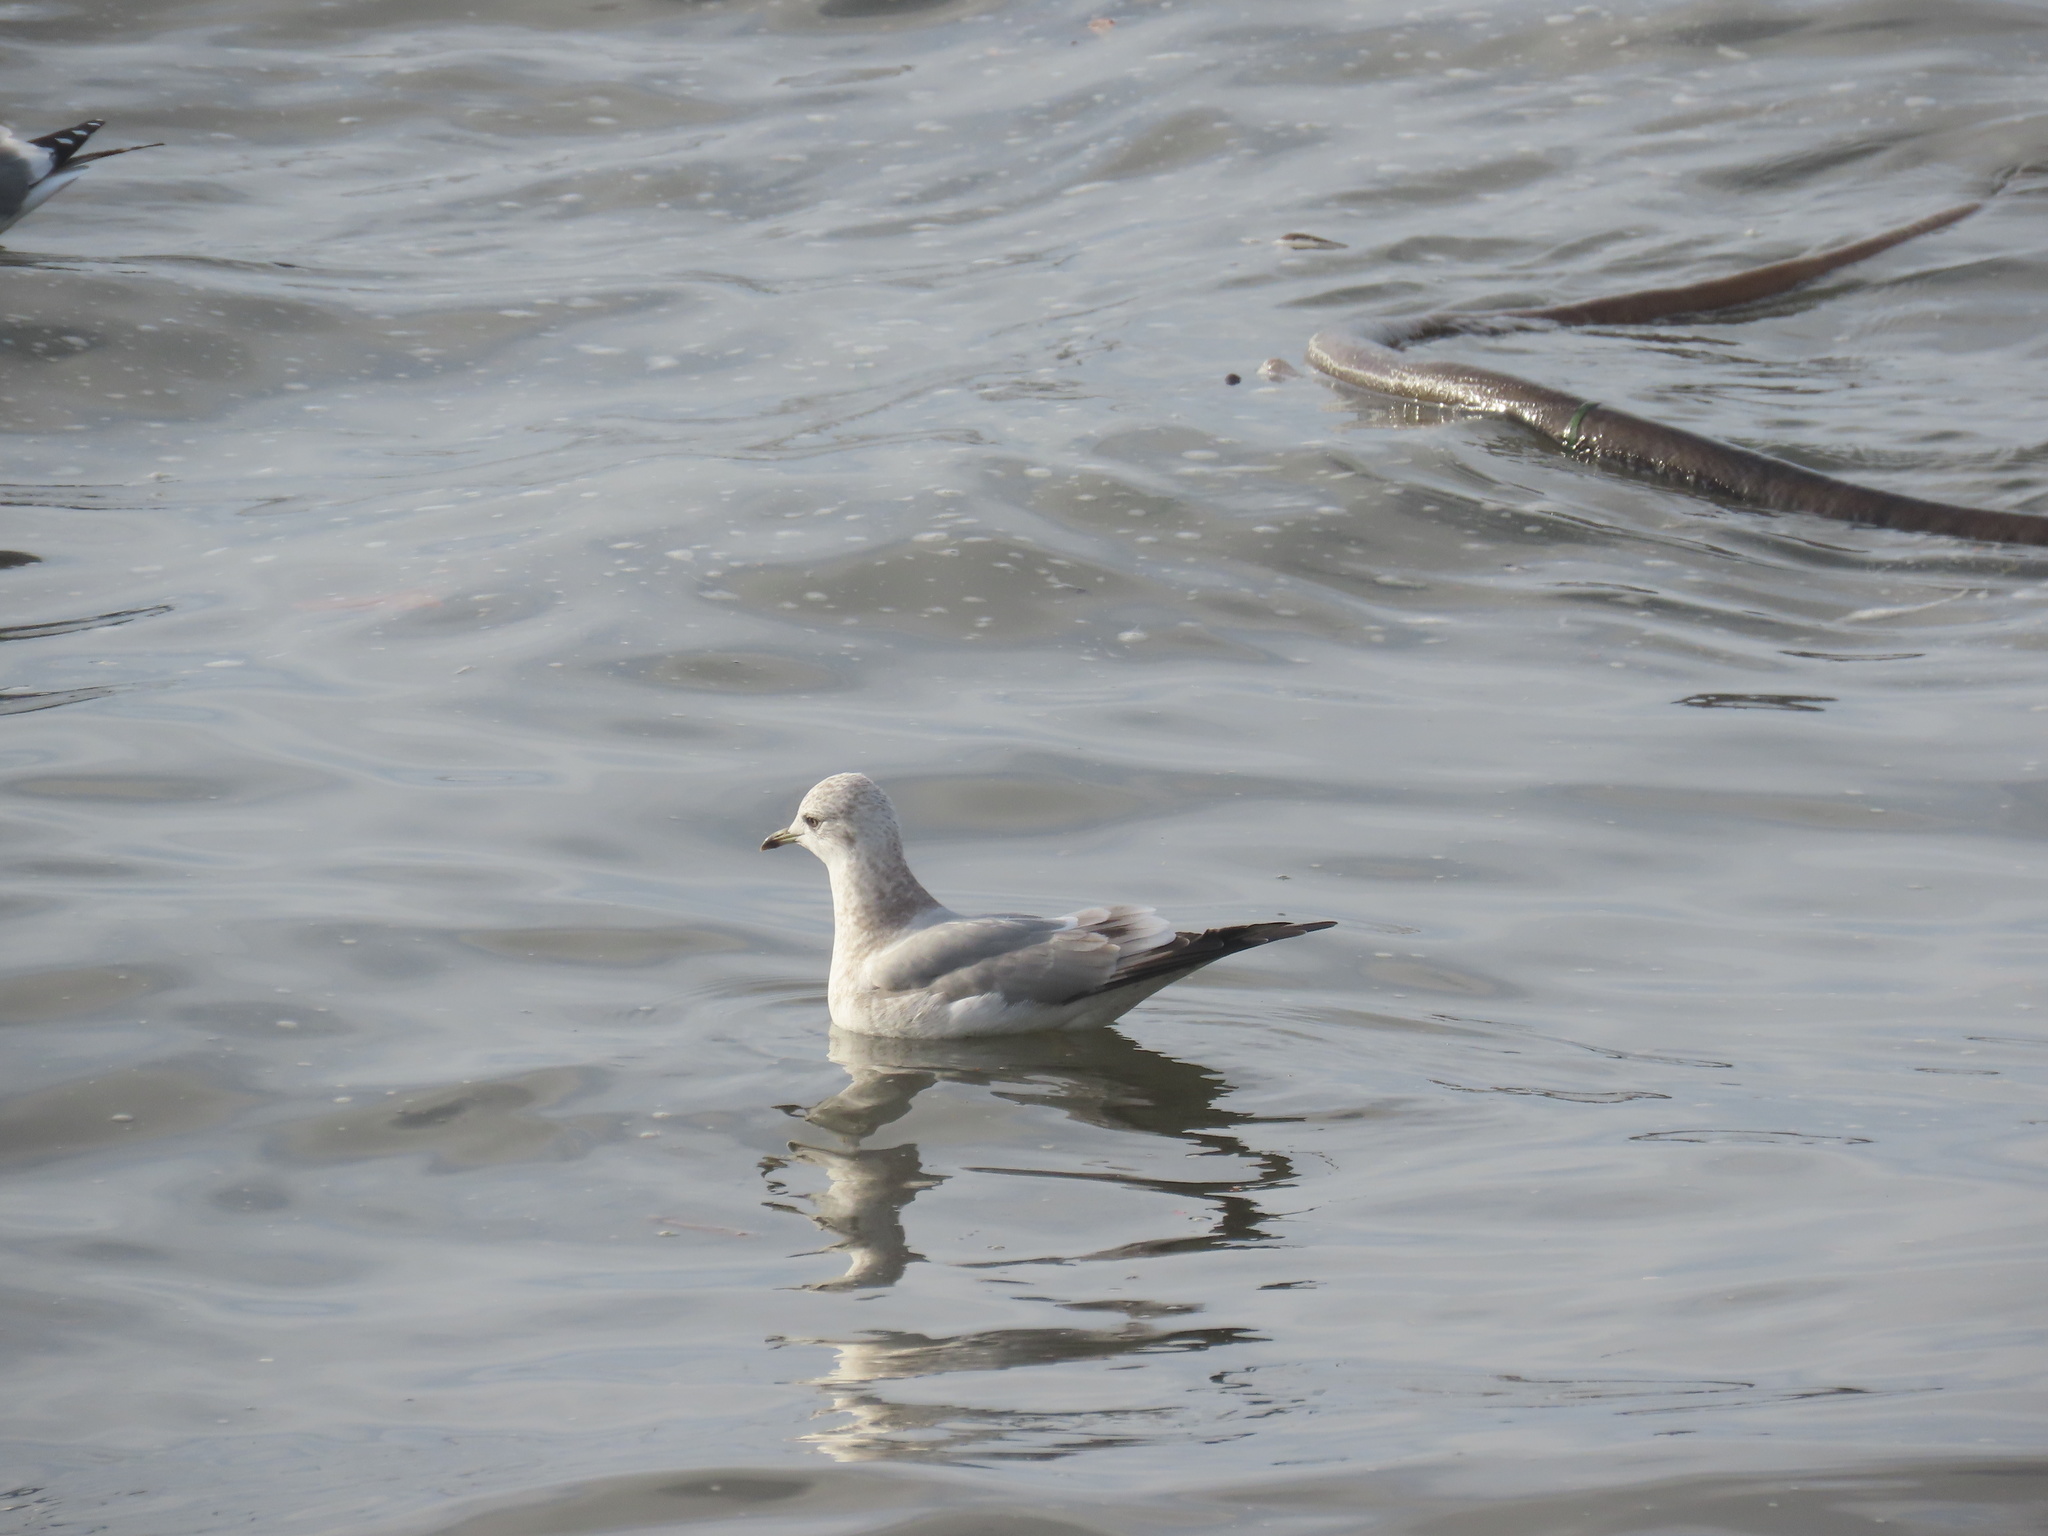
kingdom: Animalia
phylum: Chordata
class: Aves
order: Charadriiformes
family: Laridae
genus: Larus
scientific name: Larus brachyrhynchus
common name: Short-billed gull
